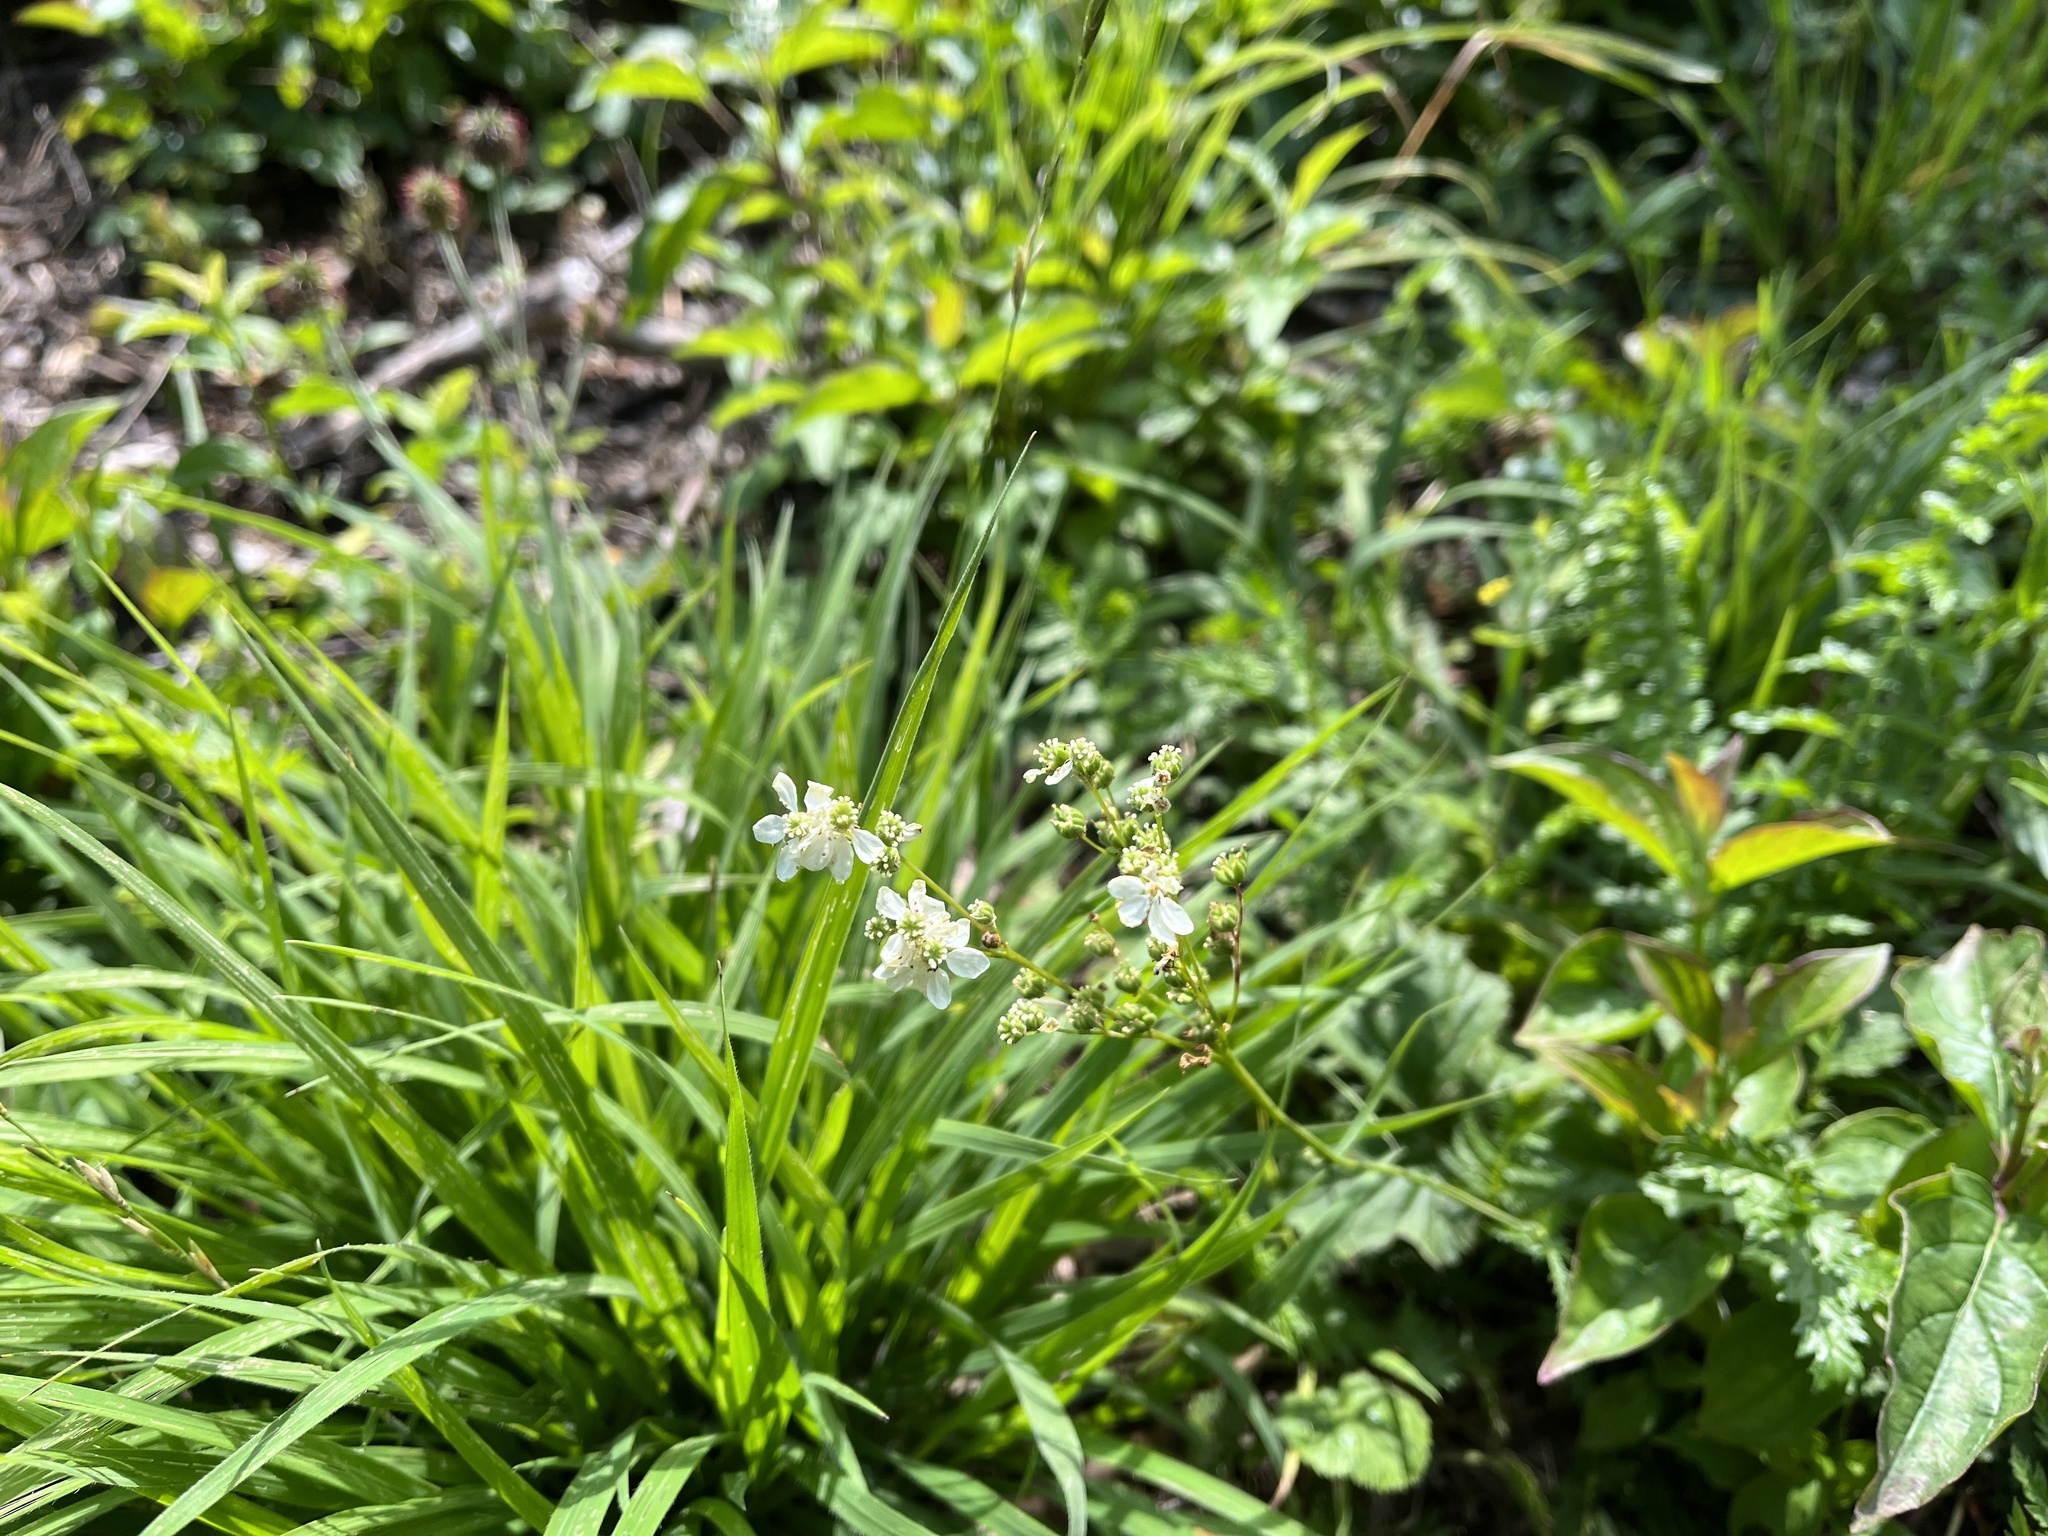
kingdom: Plantae
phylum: Tracheophyta
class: Magnoliopsida
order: Rosales
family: Rosaceae
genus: Filipendula
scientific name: Filipendula vulgaris
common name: Dropwort
